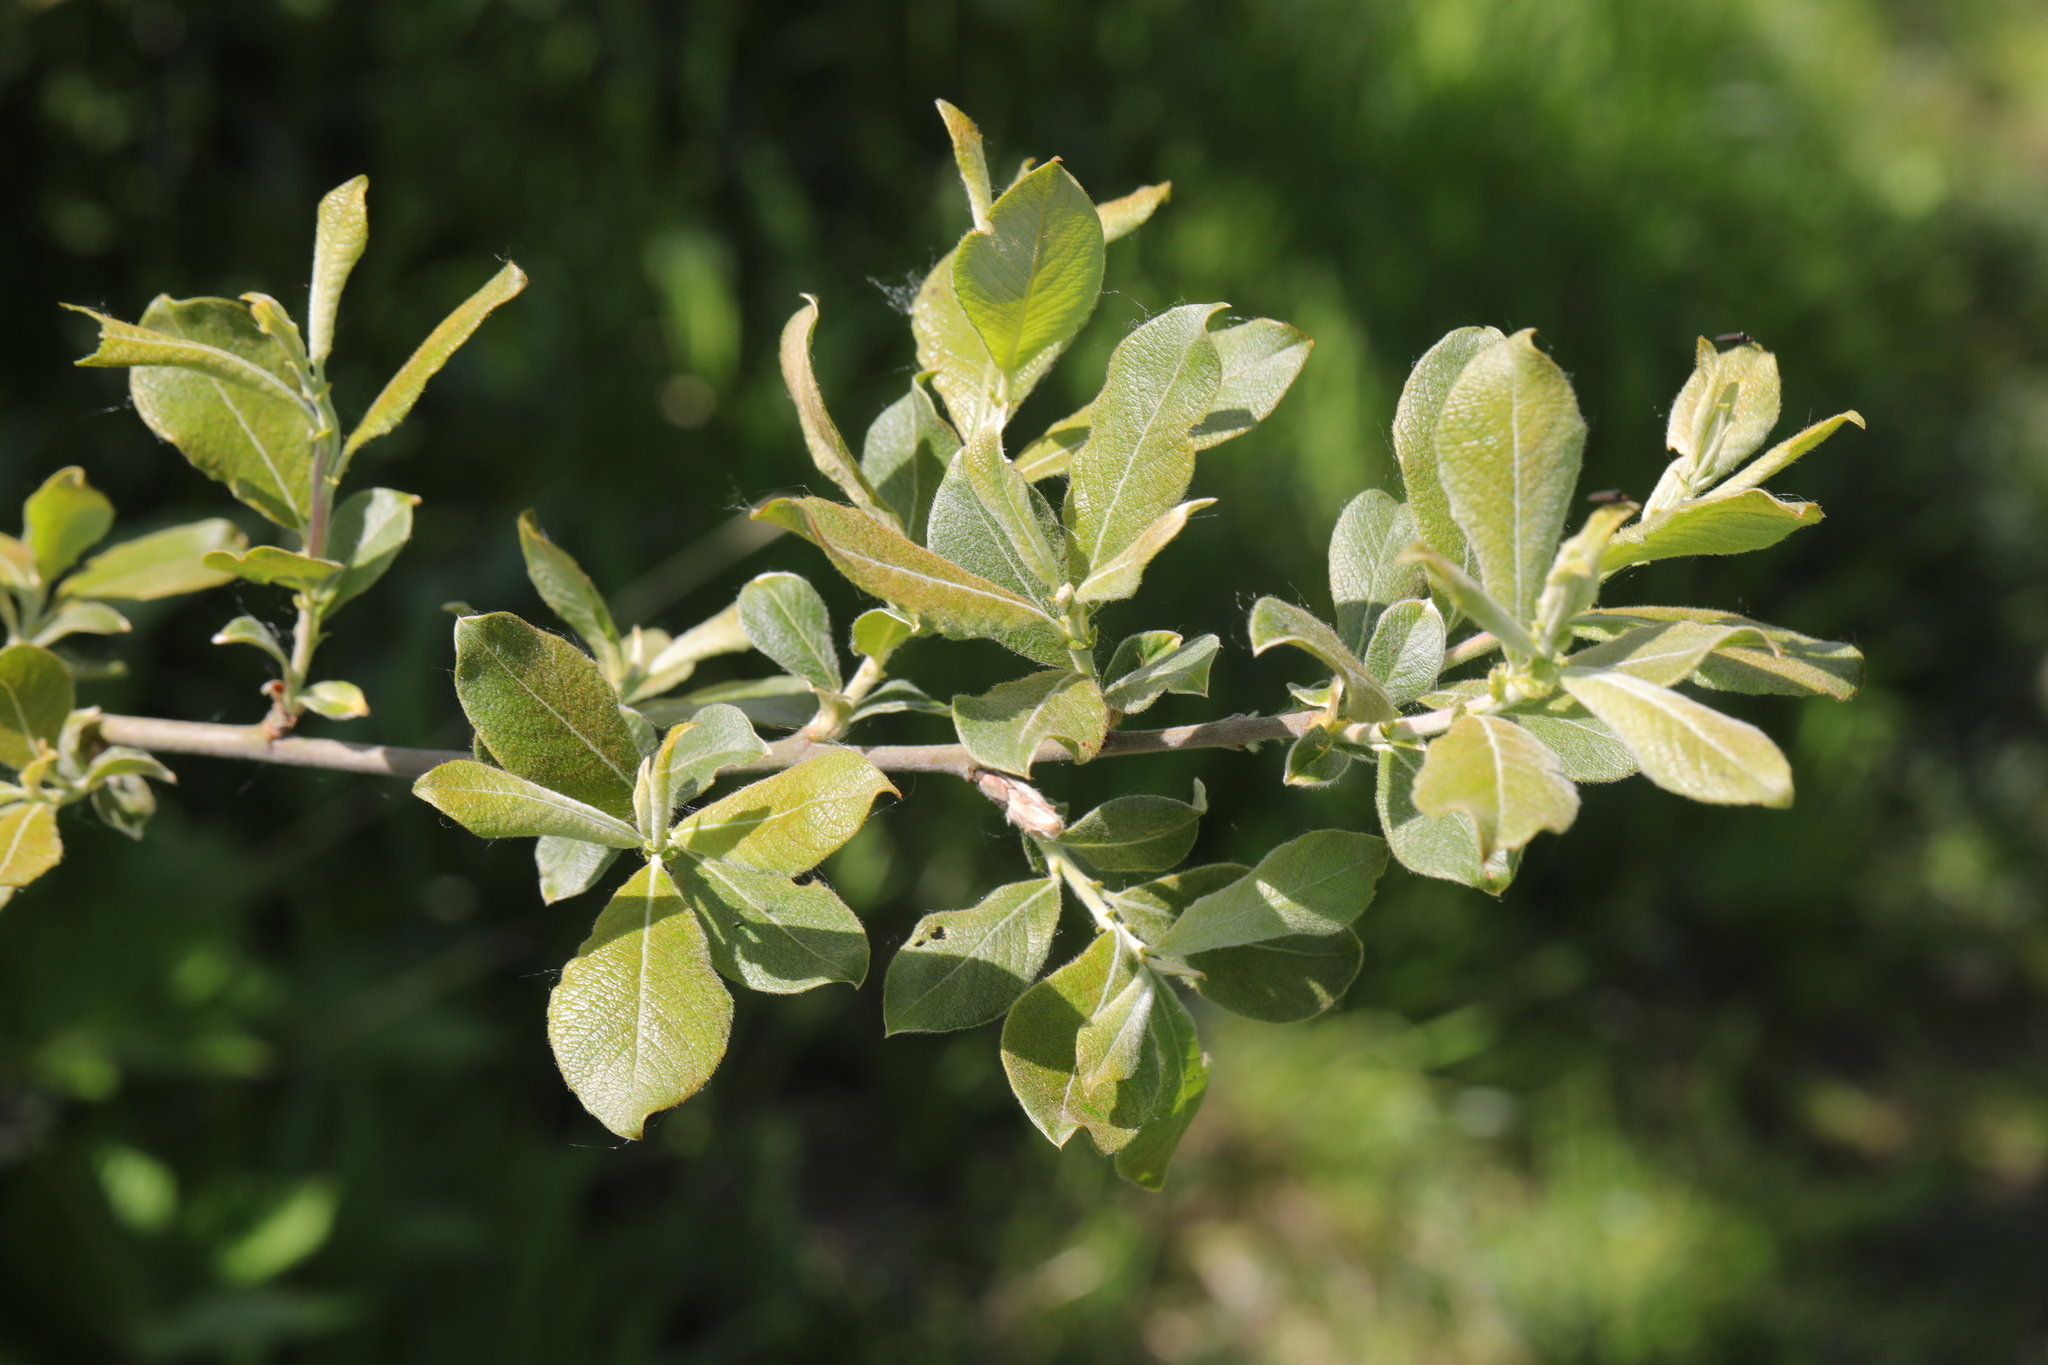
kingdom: Plantae
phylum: Tracheophyta
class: Magnoliopsida
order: Malpighiales
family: Salicaceae
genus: Salix
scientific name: Salix cinerea
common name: Common sallow
